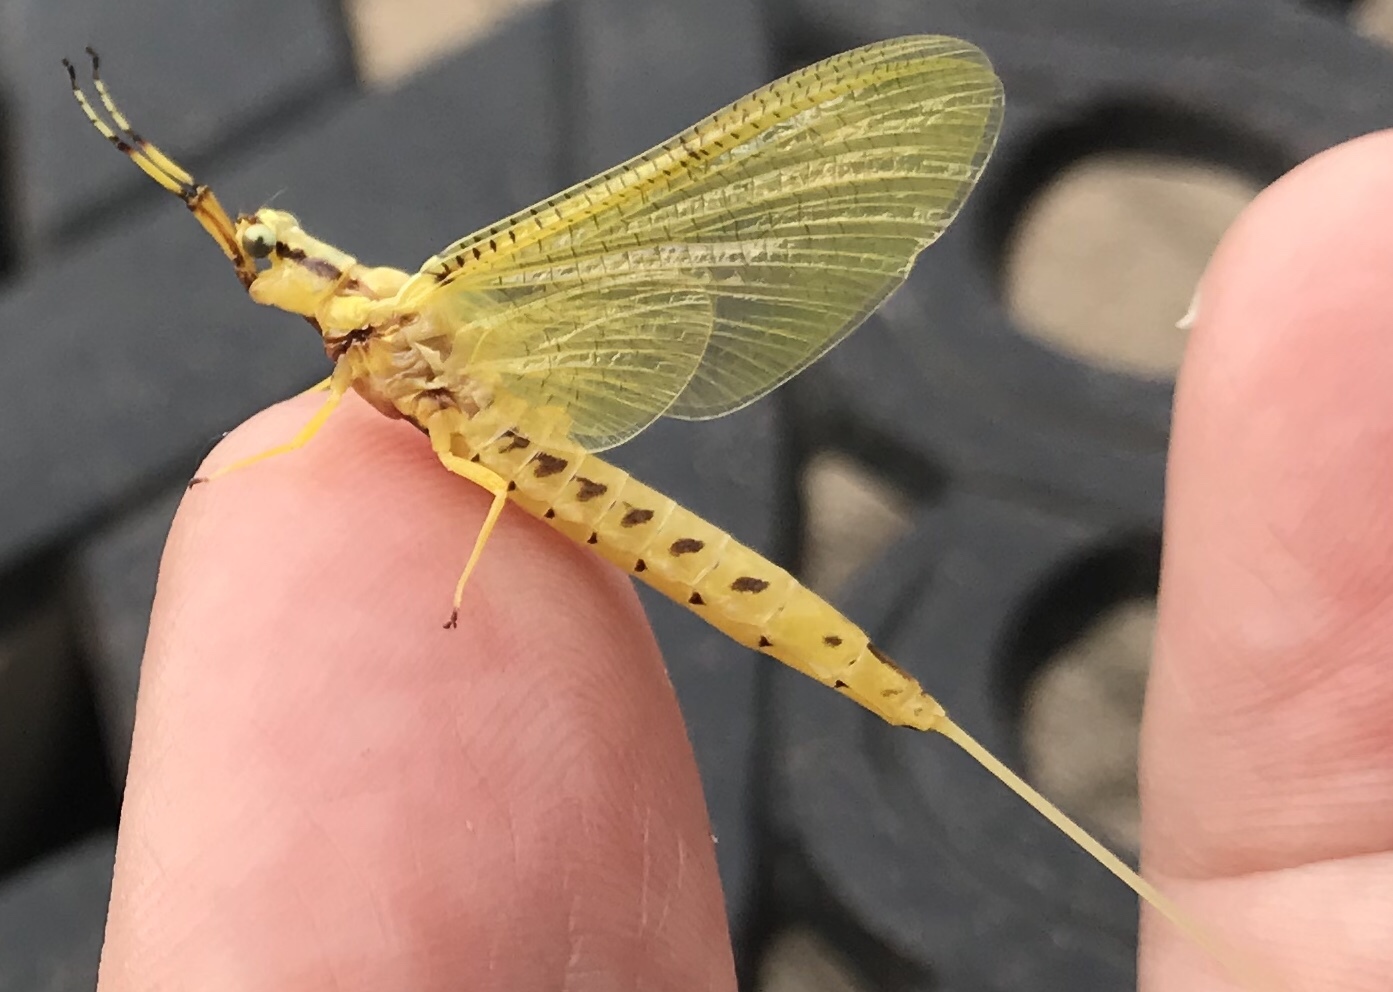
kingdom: Animalia
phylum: Arthropoda
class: Insecta
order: Ephemeroptera
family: Ephemeridae
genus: Hexagenia
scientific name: Hexagenia limbata
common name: Giant mayfly
